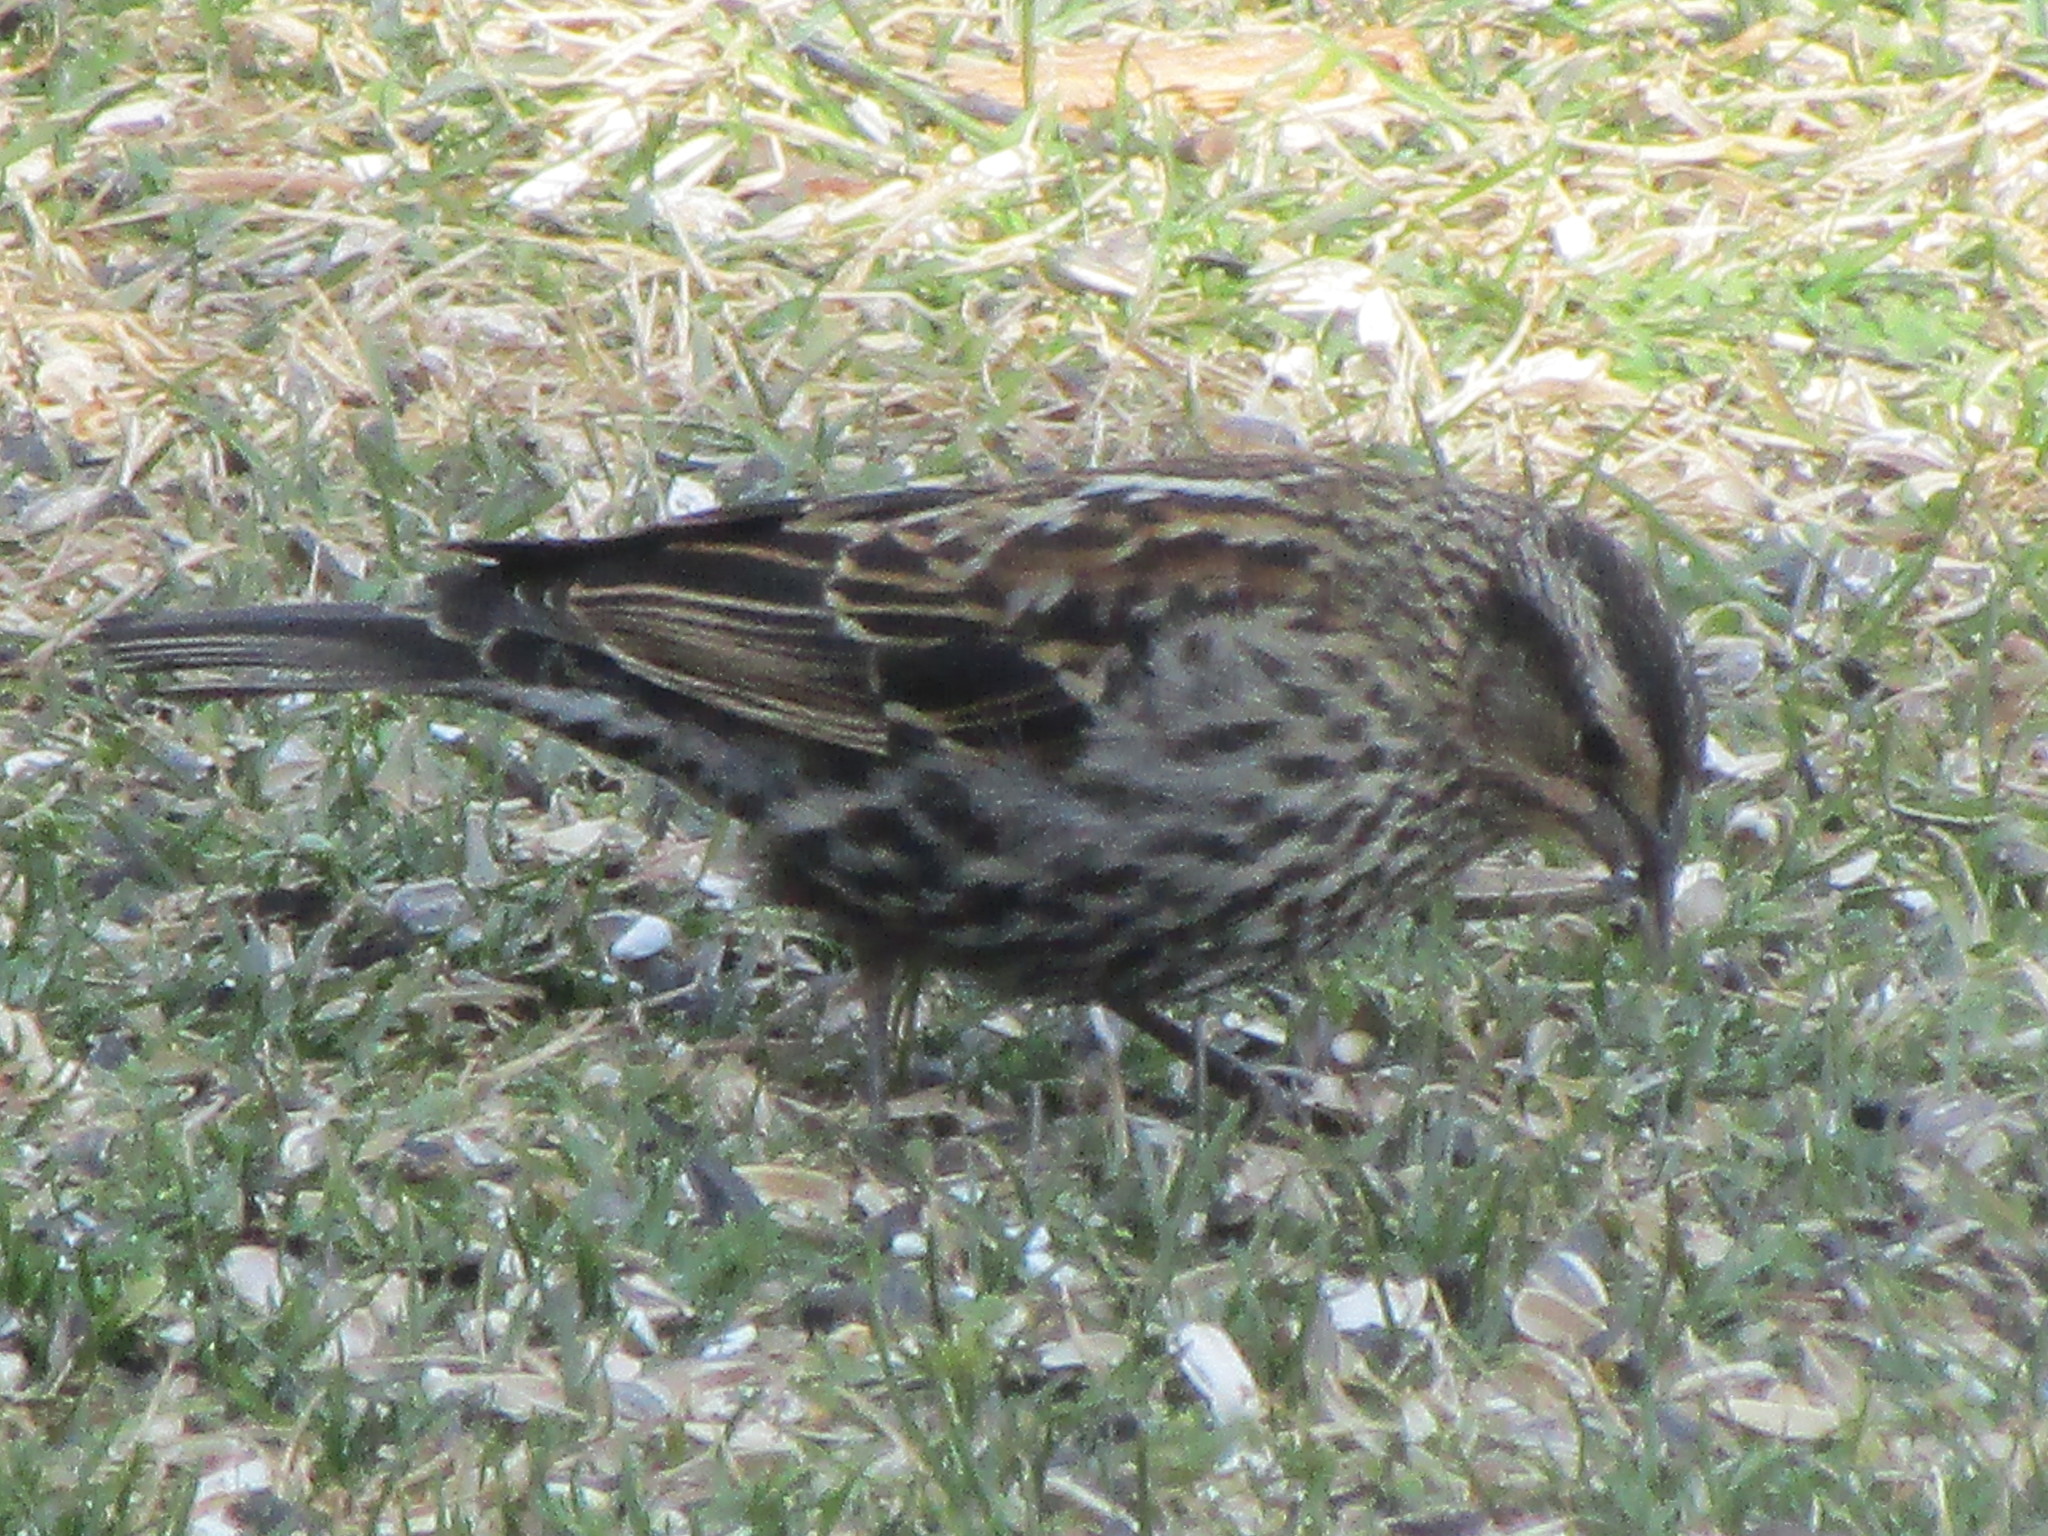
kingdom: Animalia
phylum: Chordata
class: Aves
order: Passeriformes
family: Icteridae
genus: Agelaius
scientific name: Agelaius phoeniceus
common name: Red-winged blackbird
